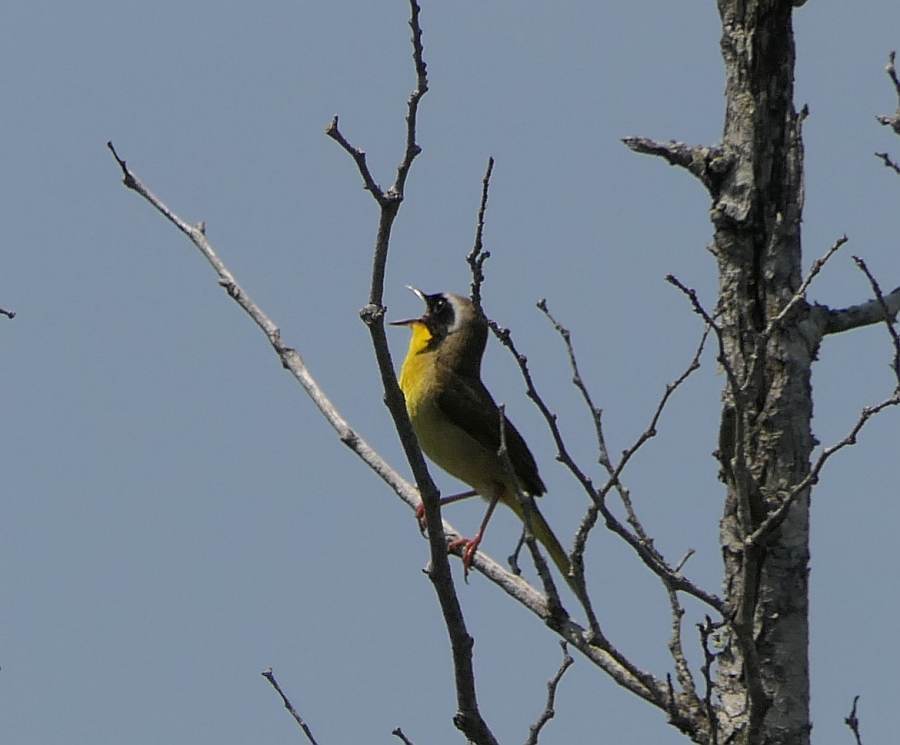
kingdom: Animalia
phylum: Chordata
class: Aves
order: Passeriformes
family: Parulidae
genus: Geothlypis
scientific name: Geothlypis trichas
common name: Common yellowthroat
